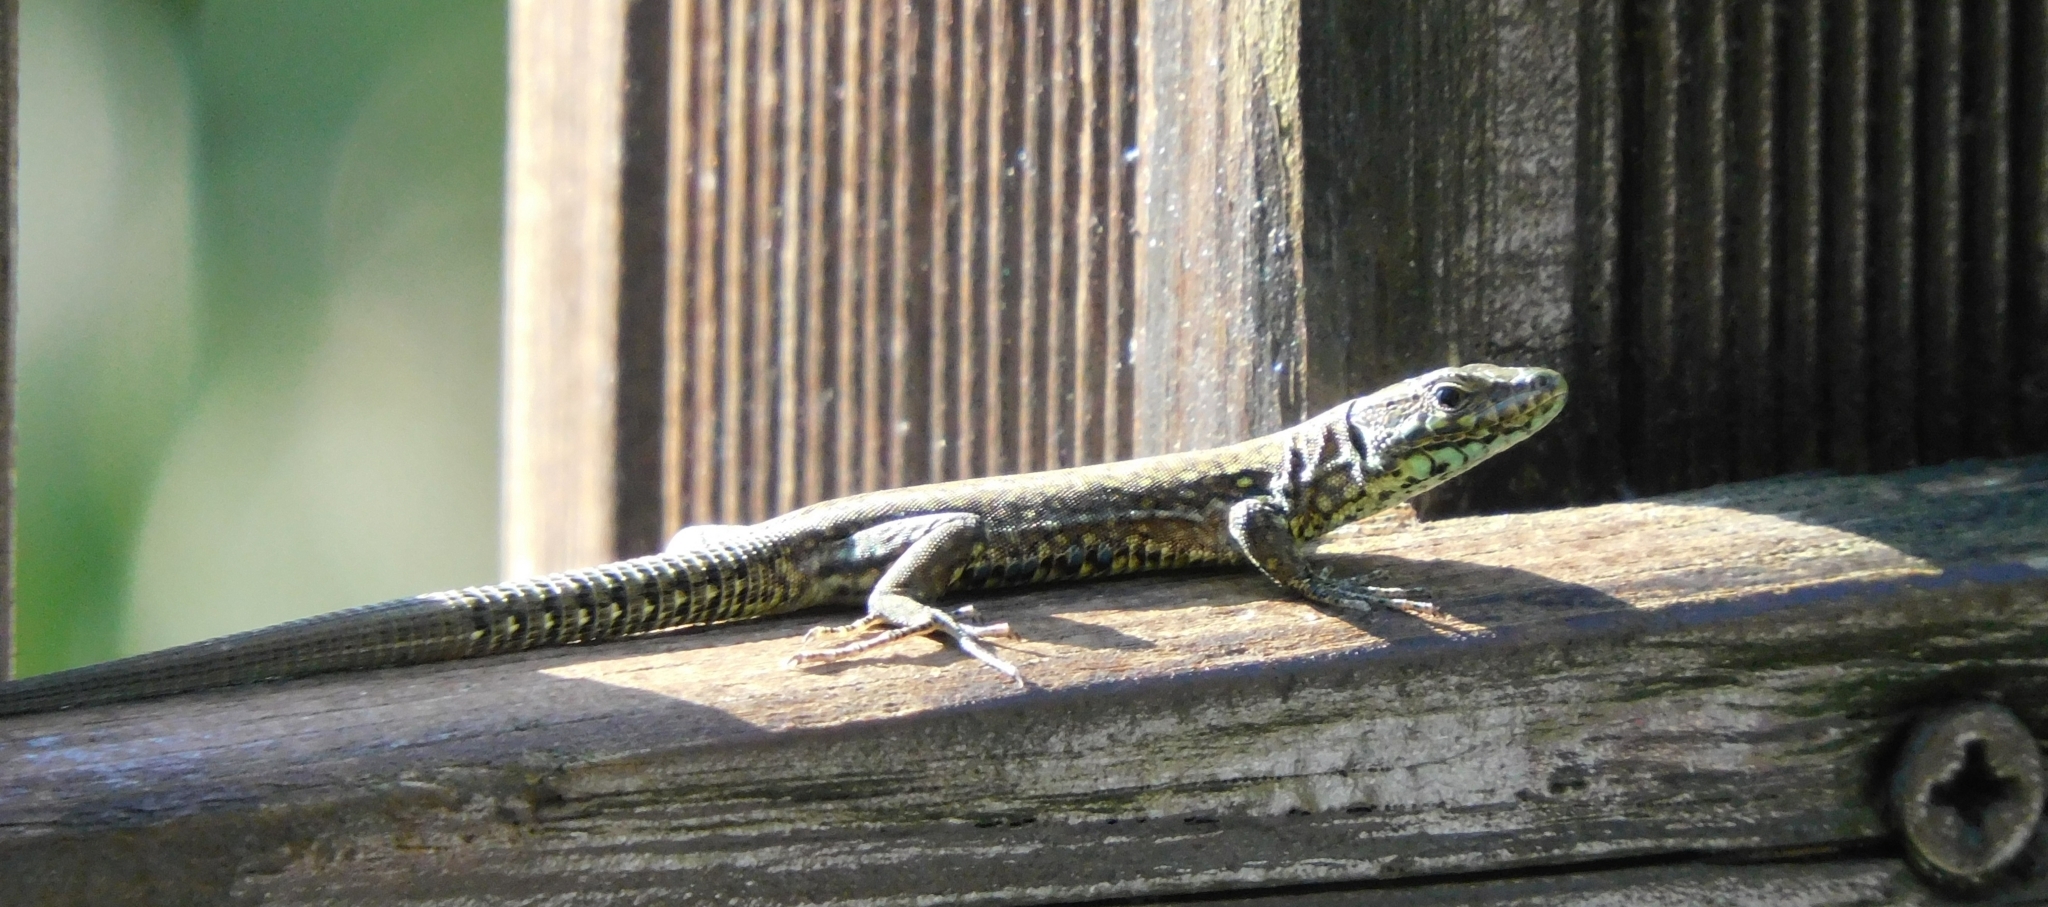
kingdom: Animalia
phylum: Chordata
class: Squamata
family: Lacertidae
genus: Podarcis
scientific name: Podarcis muralis
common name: Common wall lizard
